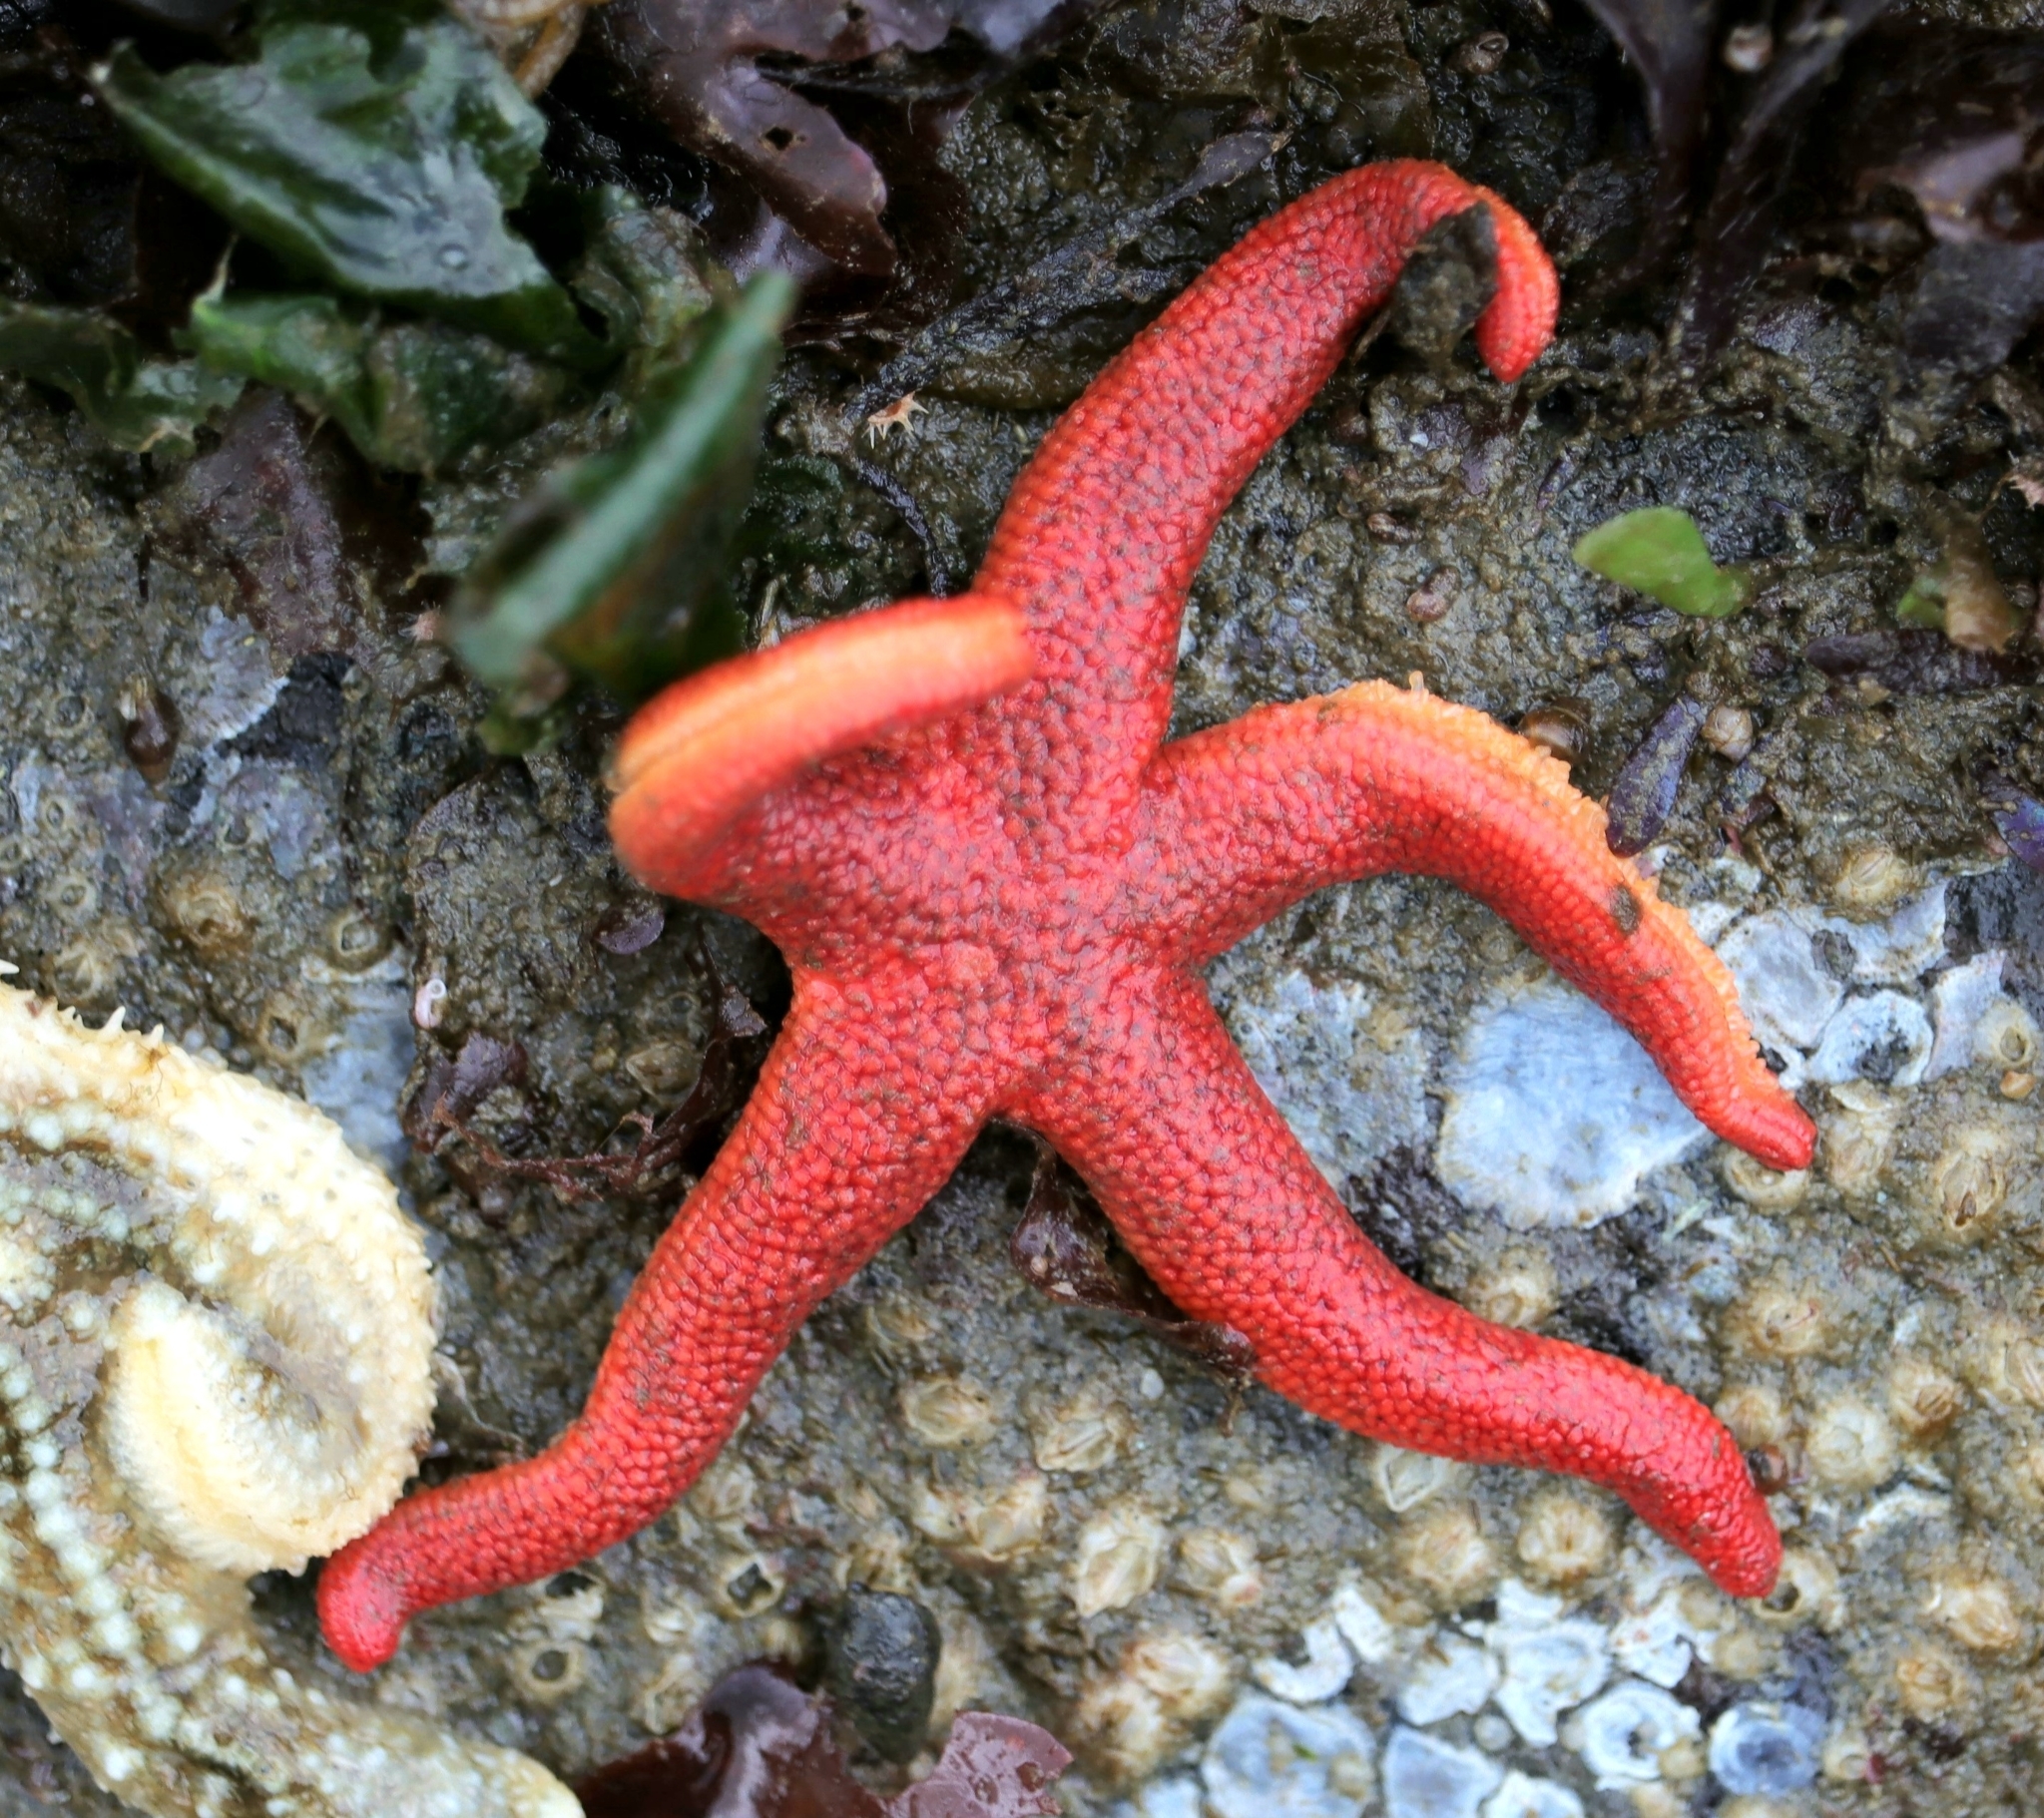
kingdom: Animalia
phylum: Echinodermata
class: Asteroidea
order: Spinulosida
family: Echinasteridae
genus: Henricia
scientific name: Henricia leviuscula
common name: Pacific blood star
